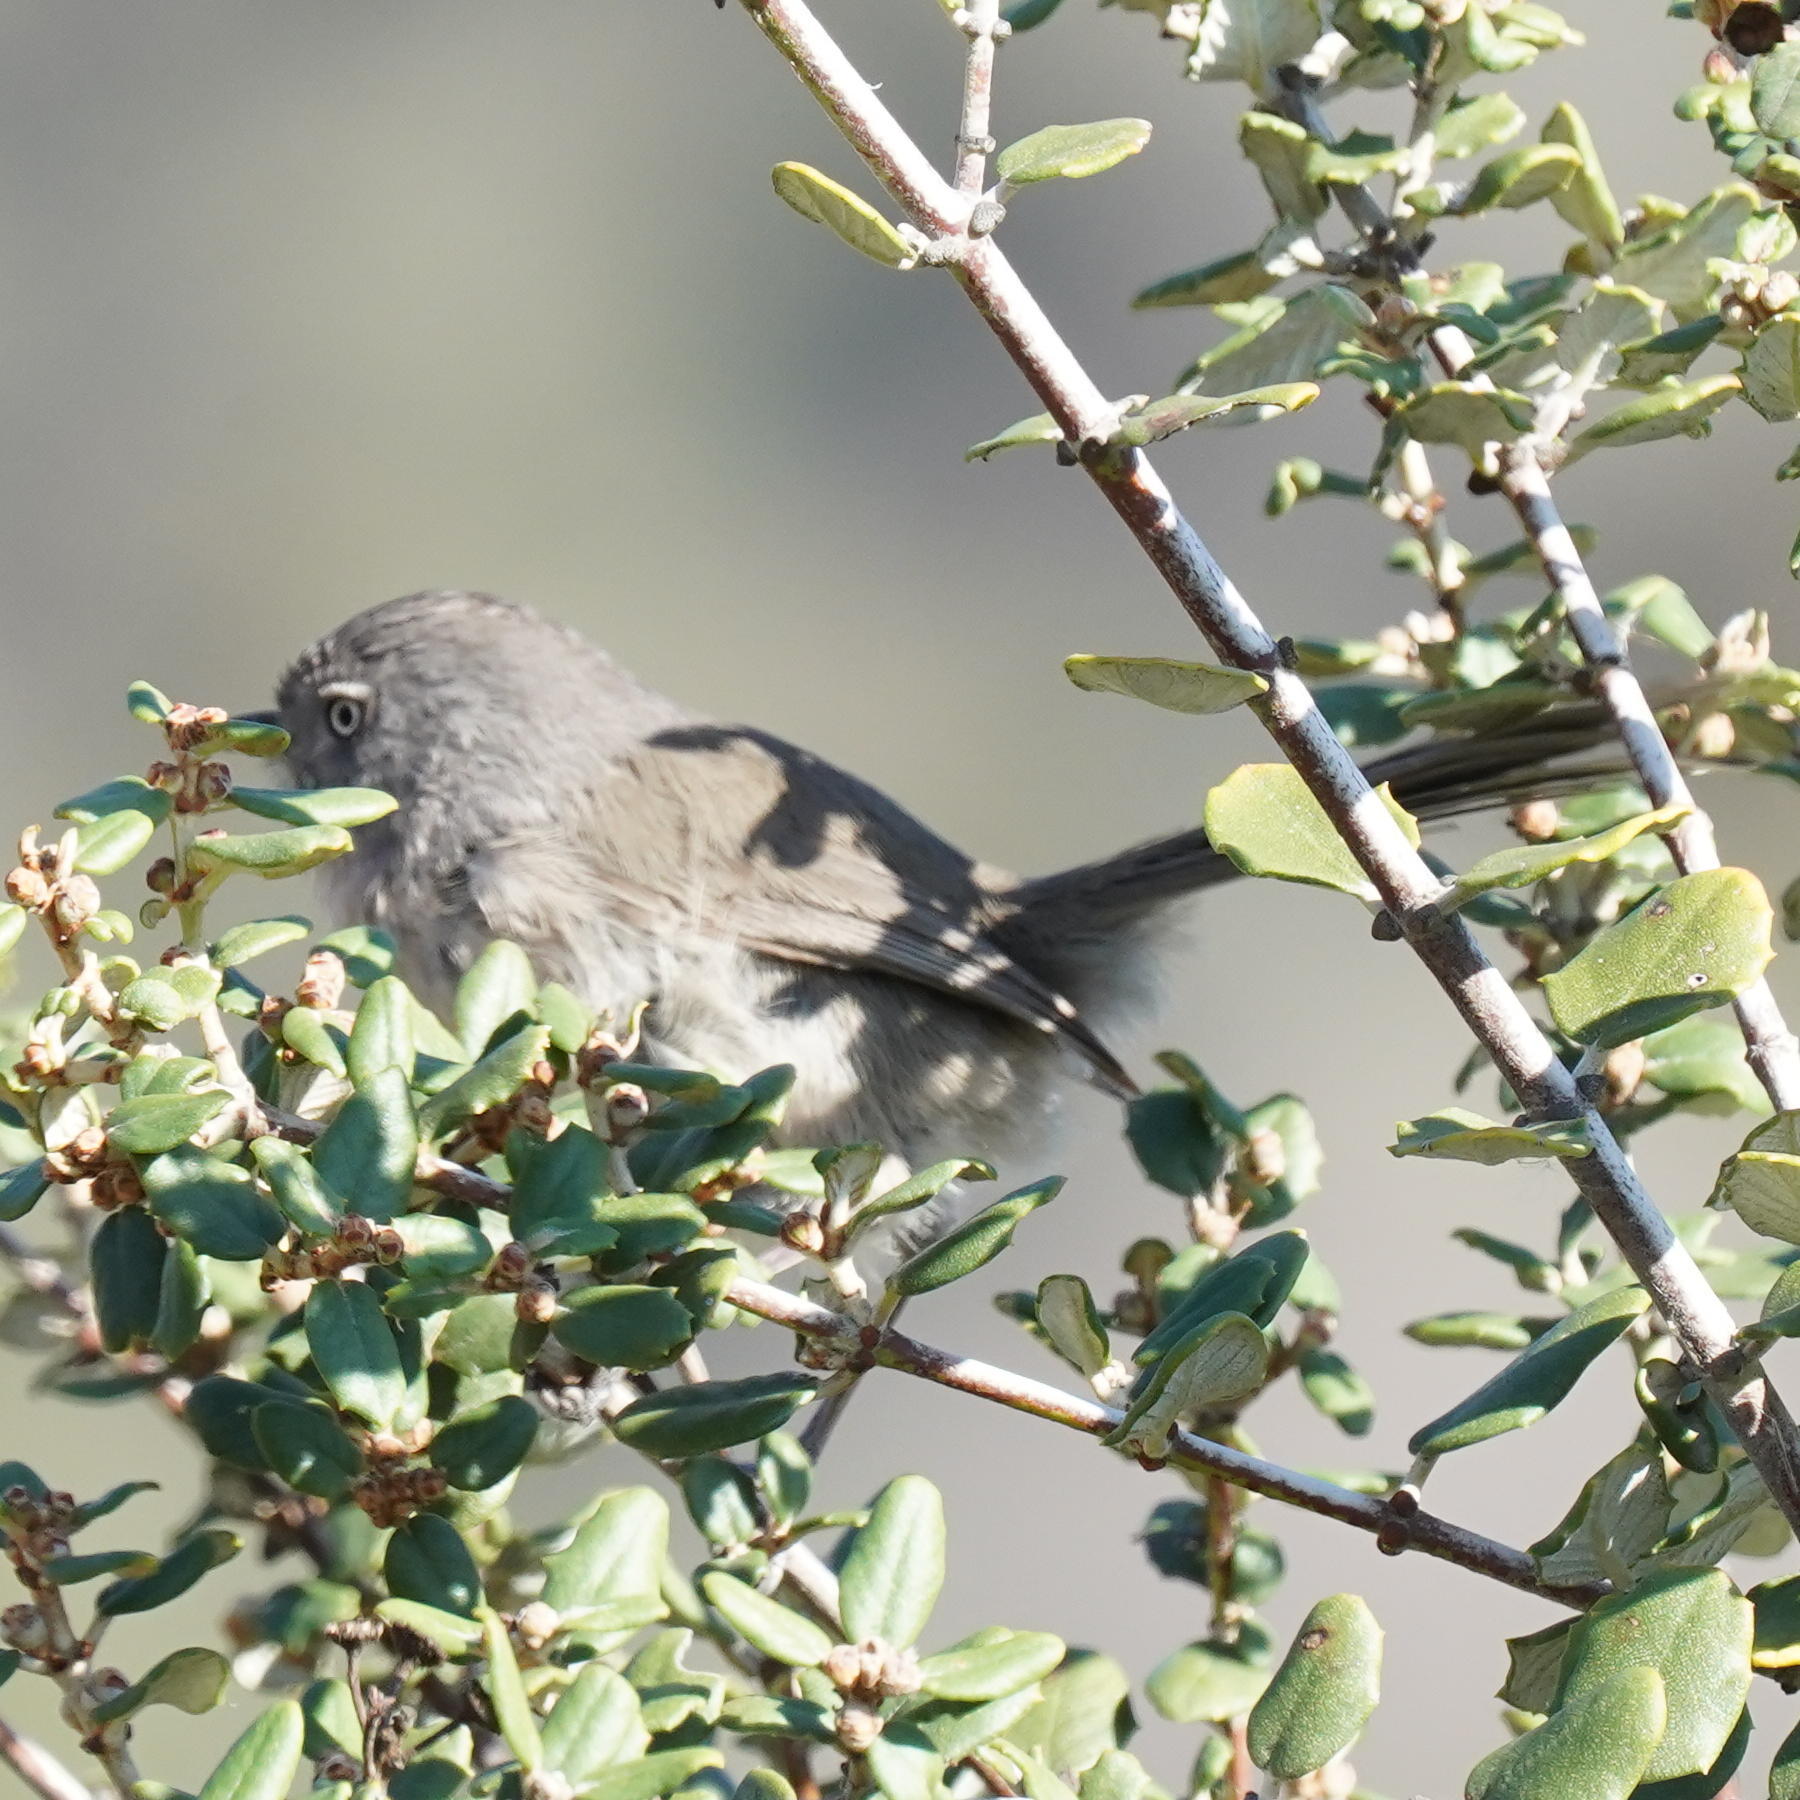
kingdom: Animalia
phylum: Chordata
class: Aves
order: Passeriformes
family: Sylviidae
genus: Chamaea
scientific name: Chamaea fasciata
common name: Wrentit
